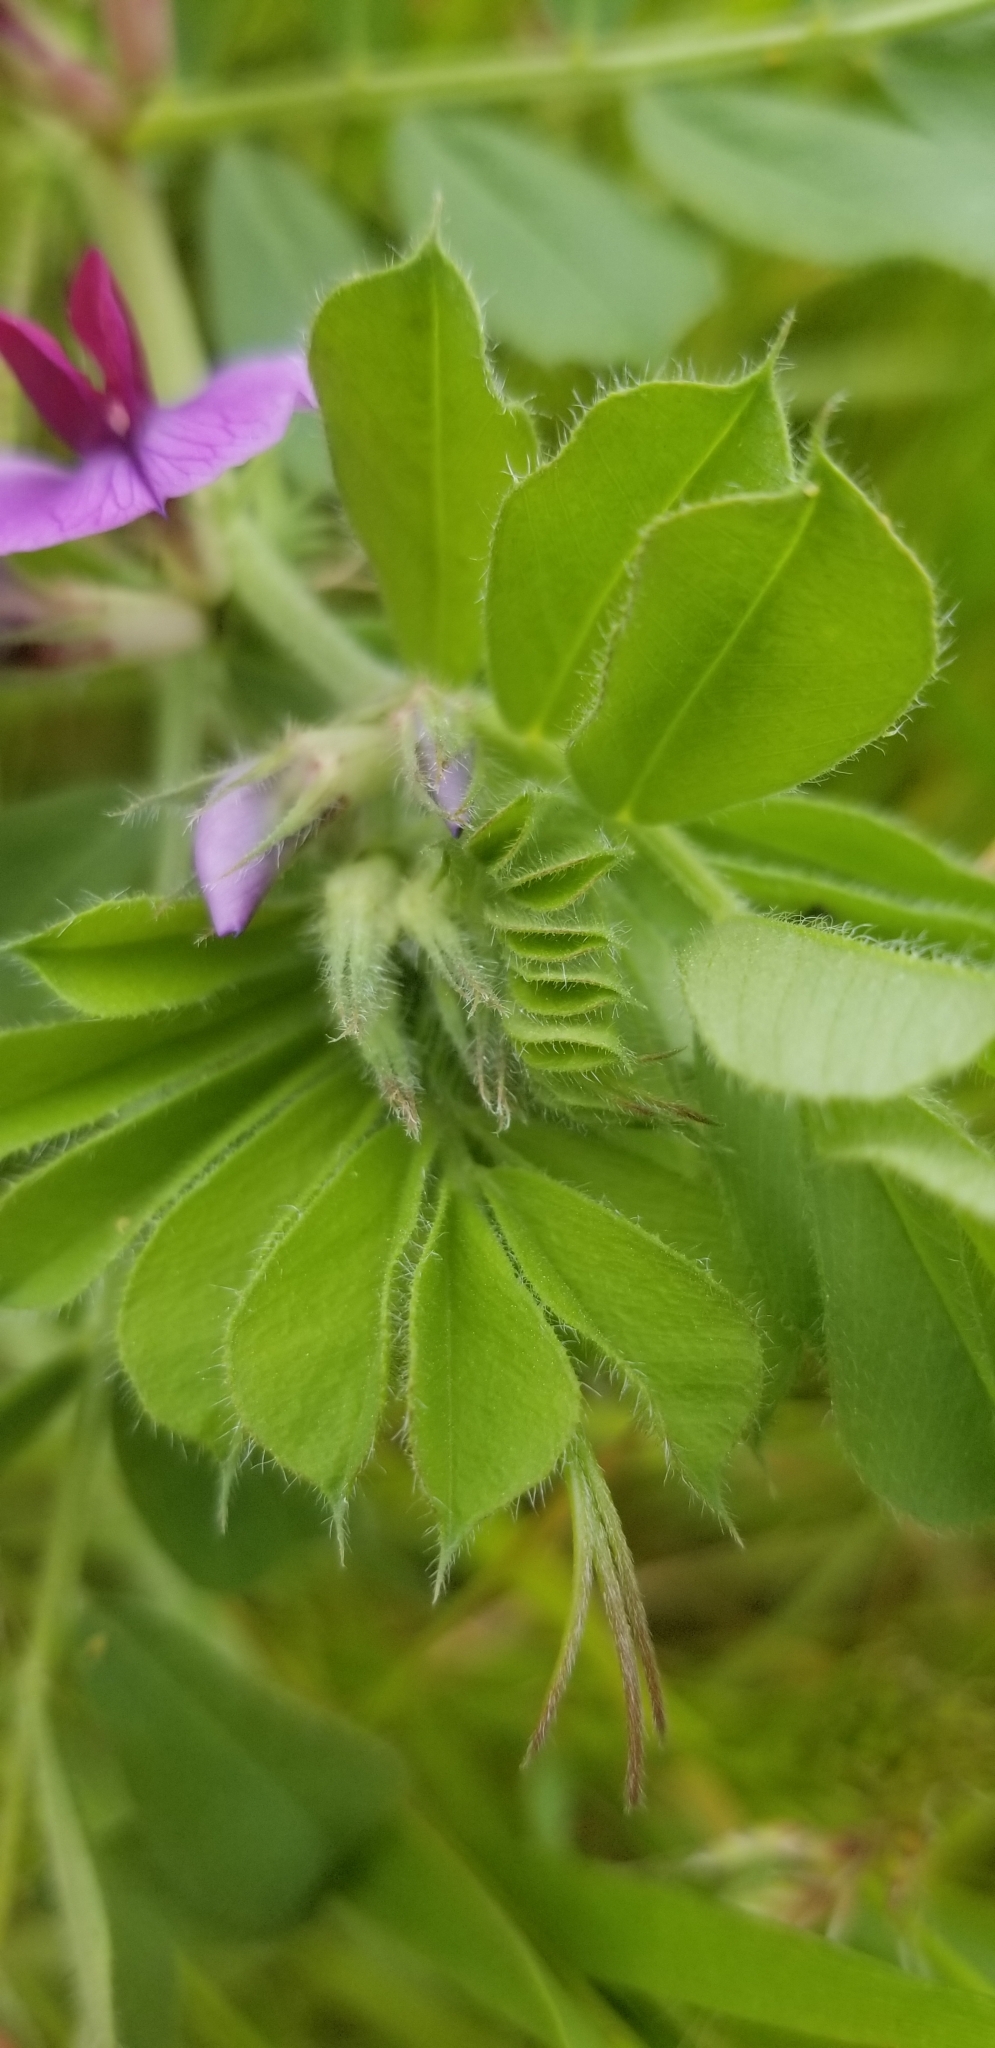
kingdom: Plantae
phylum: Tracheophyta
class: Magnoliopsida
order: Fabales
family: Fabaceae
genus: Vicia
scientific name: Vicia sativa
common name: Garden vetch
